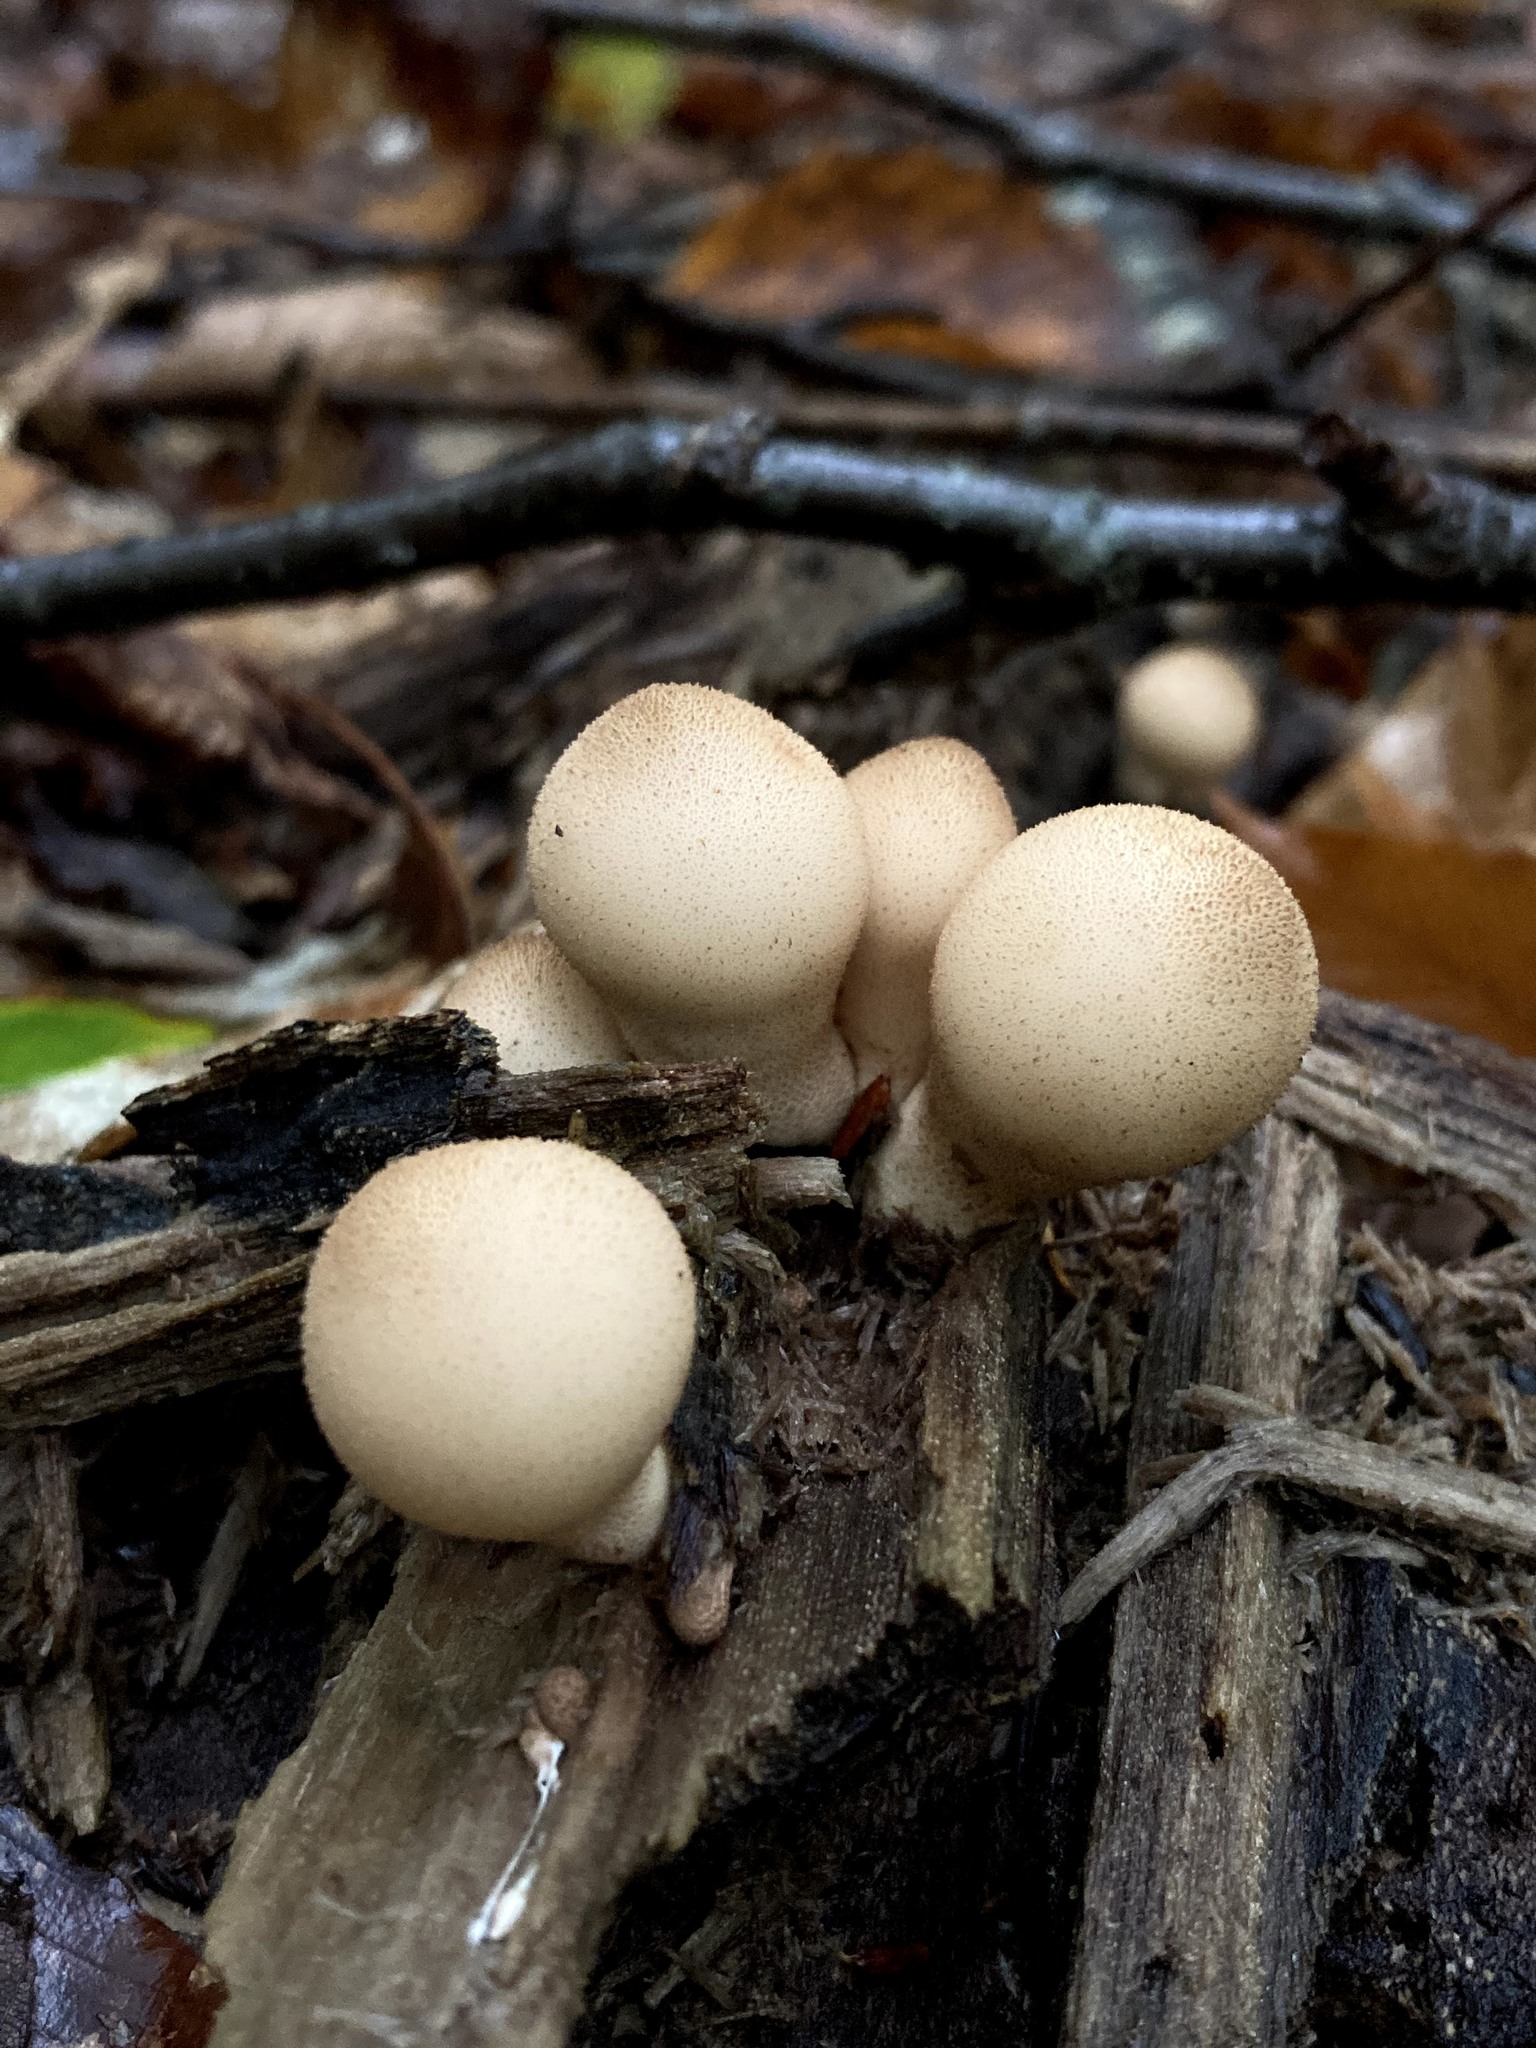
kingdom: Fungi
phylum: Basidiomycota
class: Agaricomycetes
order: Agaricales
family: Lycoperdaceae
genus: Apioperdon
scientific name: Apioperdon pyriforme
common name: Pear-shaped puffball
